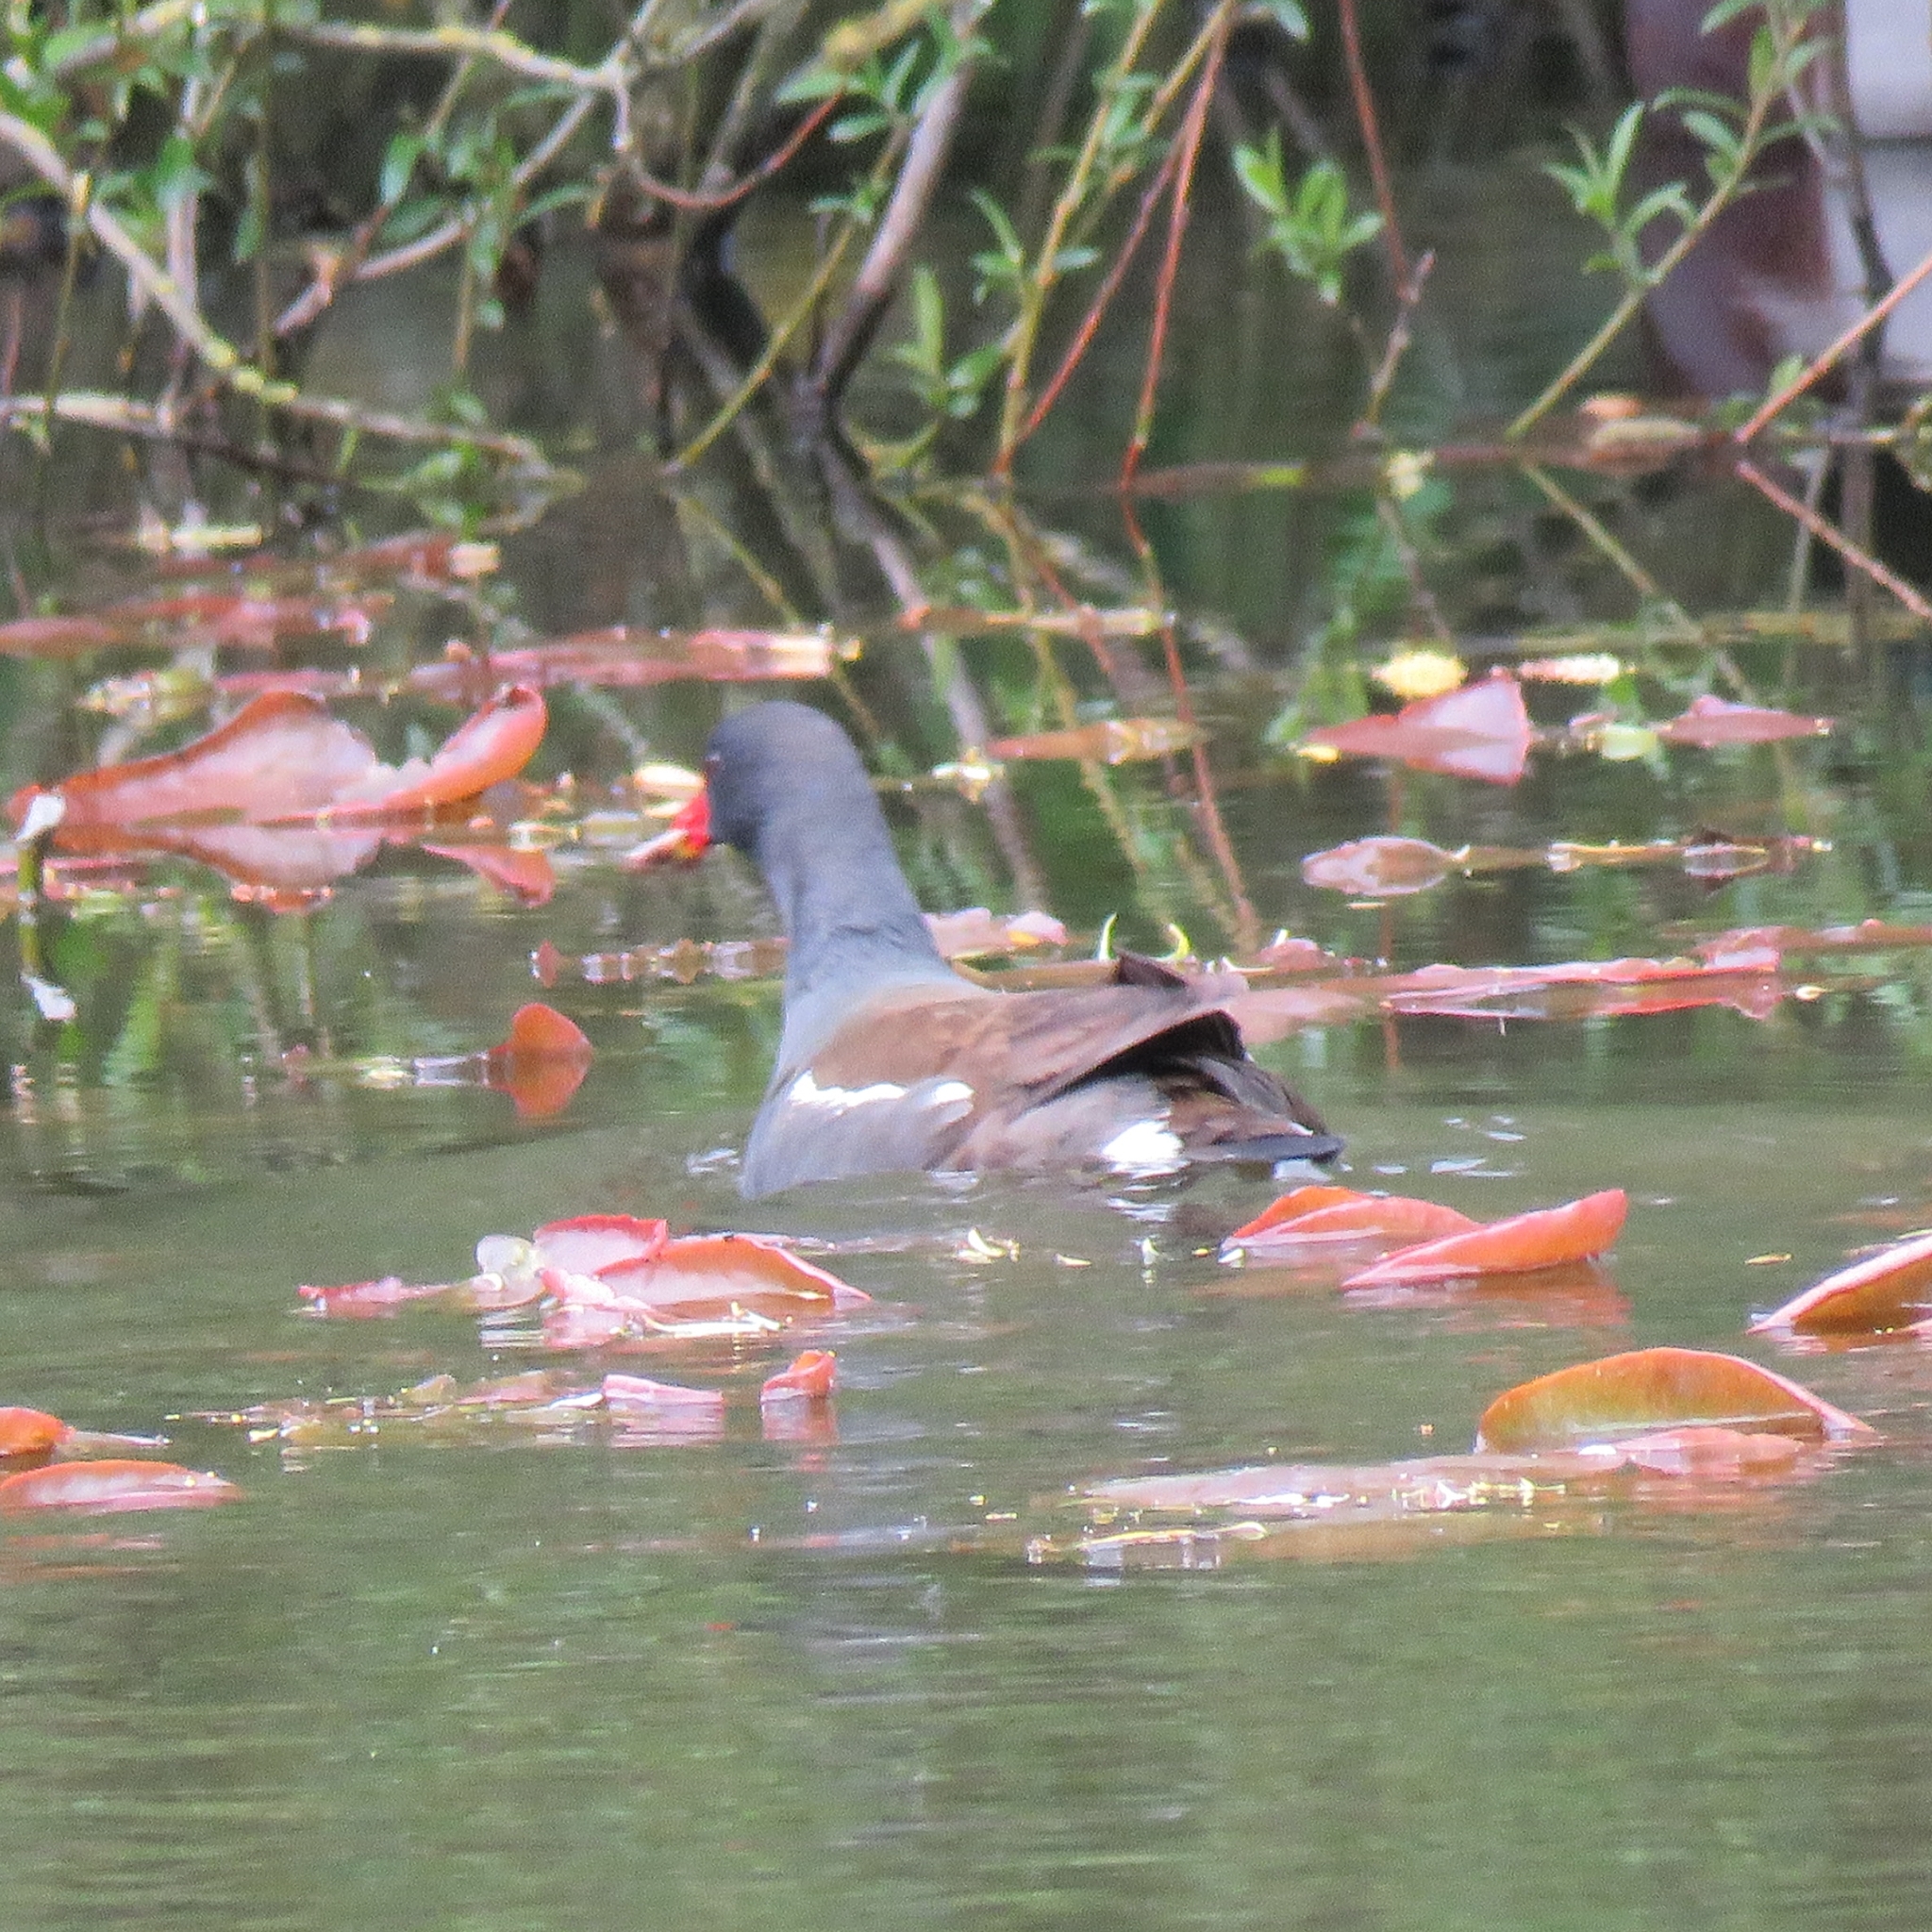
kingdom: Animalia
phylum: Chordata
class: Aves
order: Gruiformes
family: Rallidae
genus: Gallinula
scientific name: Gallinula chloropus
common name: Common moorhen
